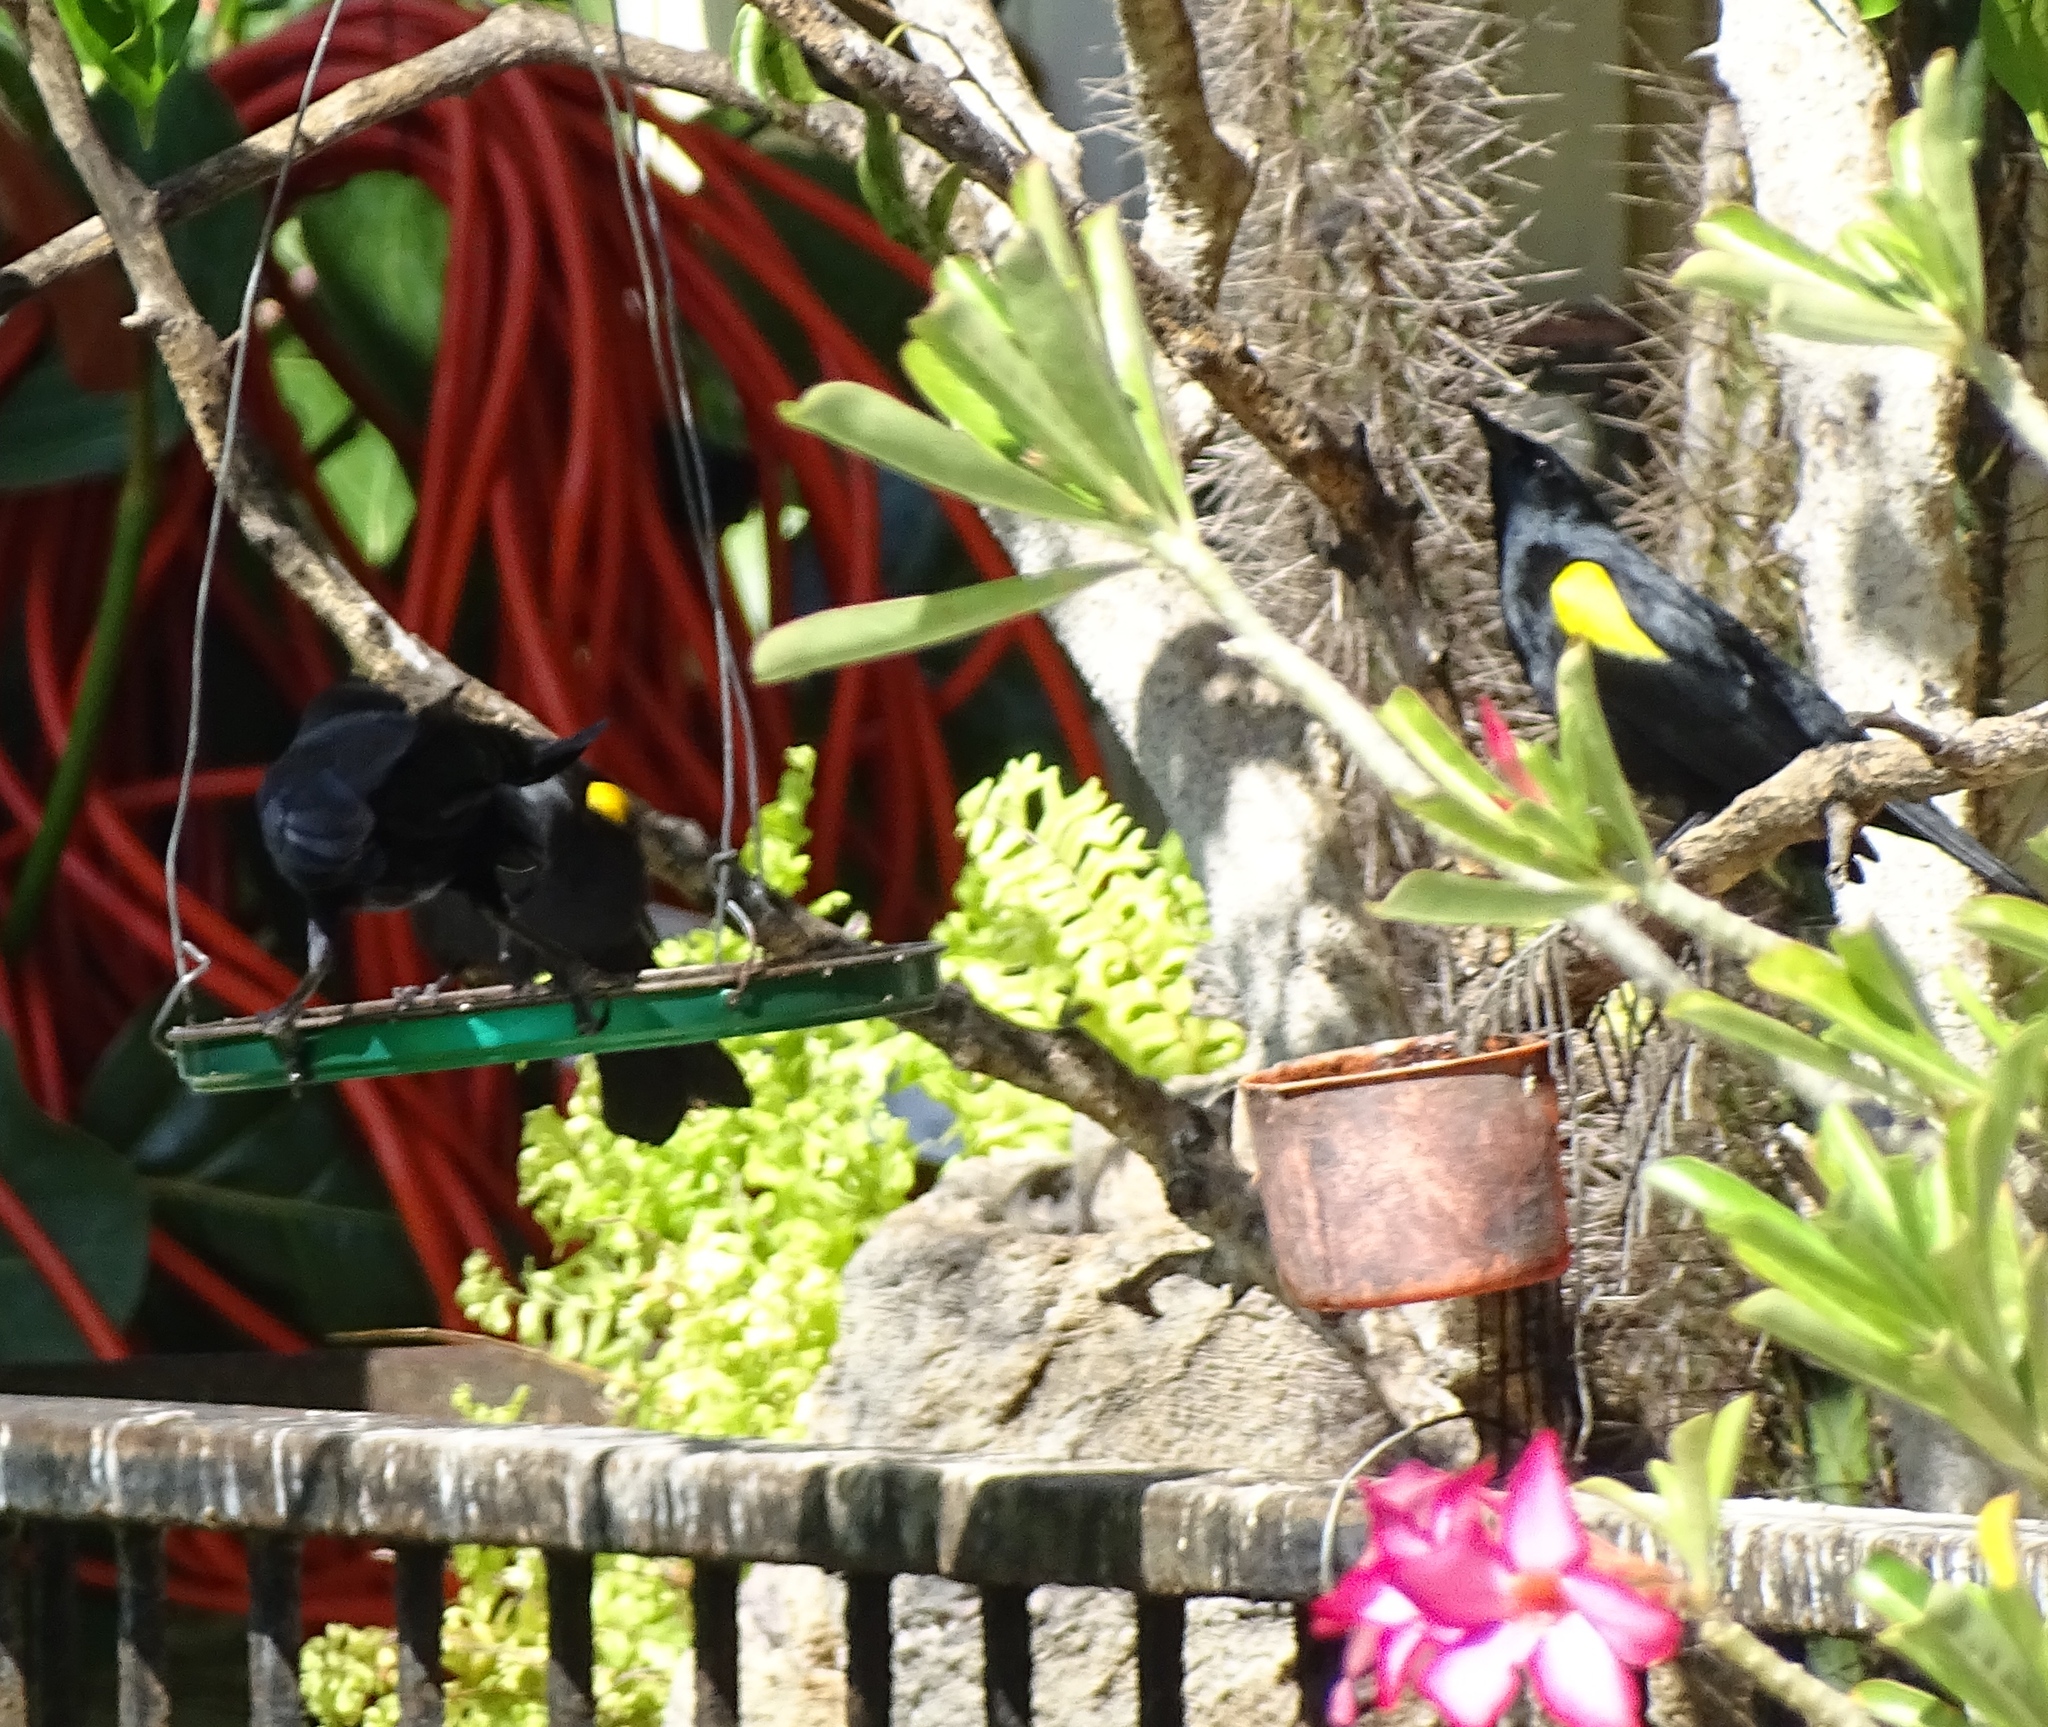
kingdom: Animalia
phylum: Chordata
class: Aves
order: Passeriformes
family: Icteridae
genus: Agelaius
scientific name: Agelaius xanthomus
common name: Yellow-shouldered blackbird
